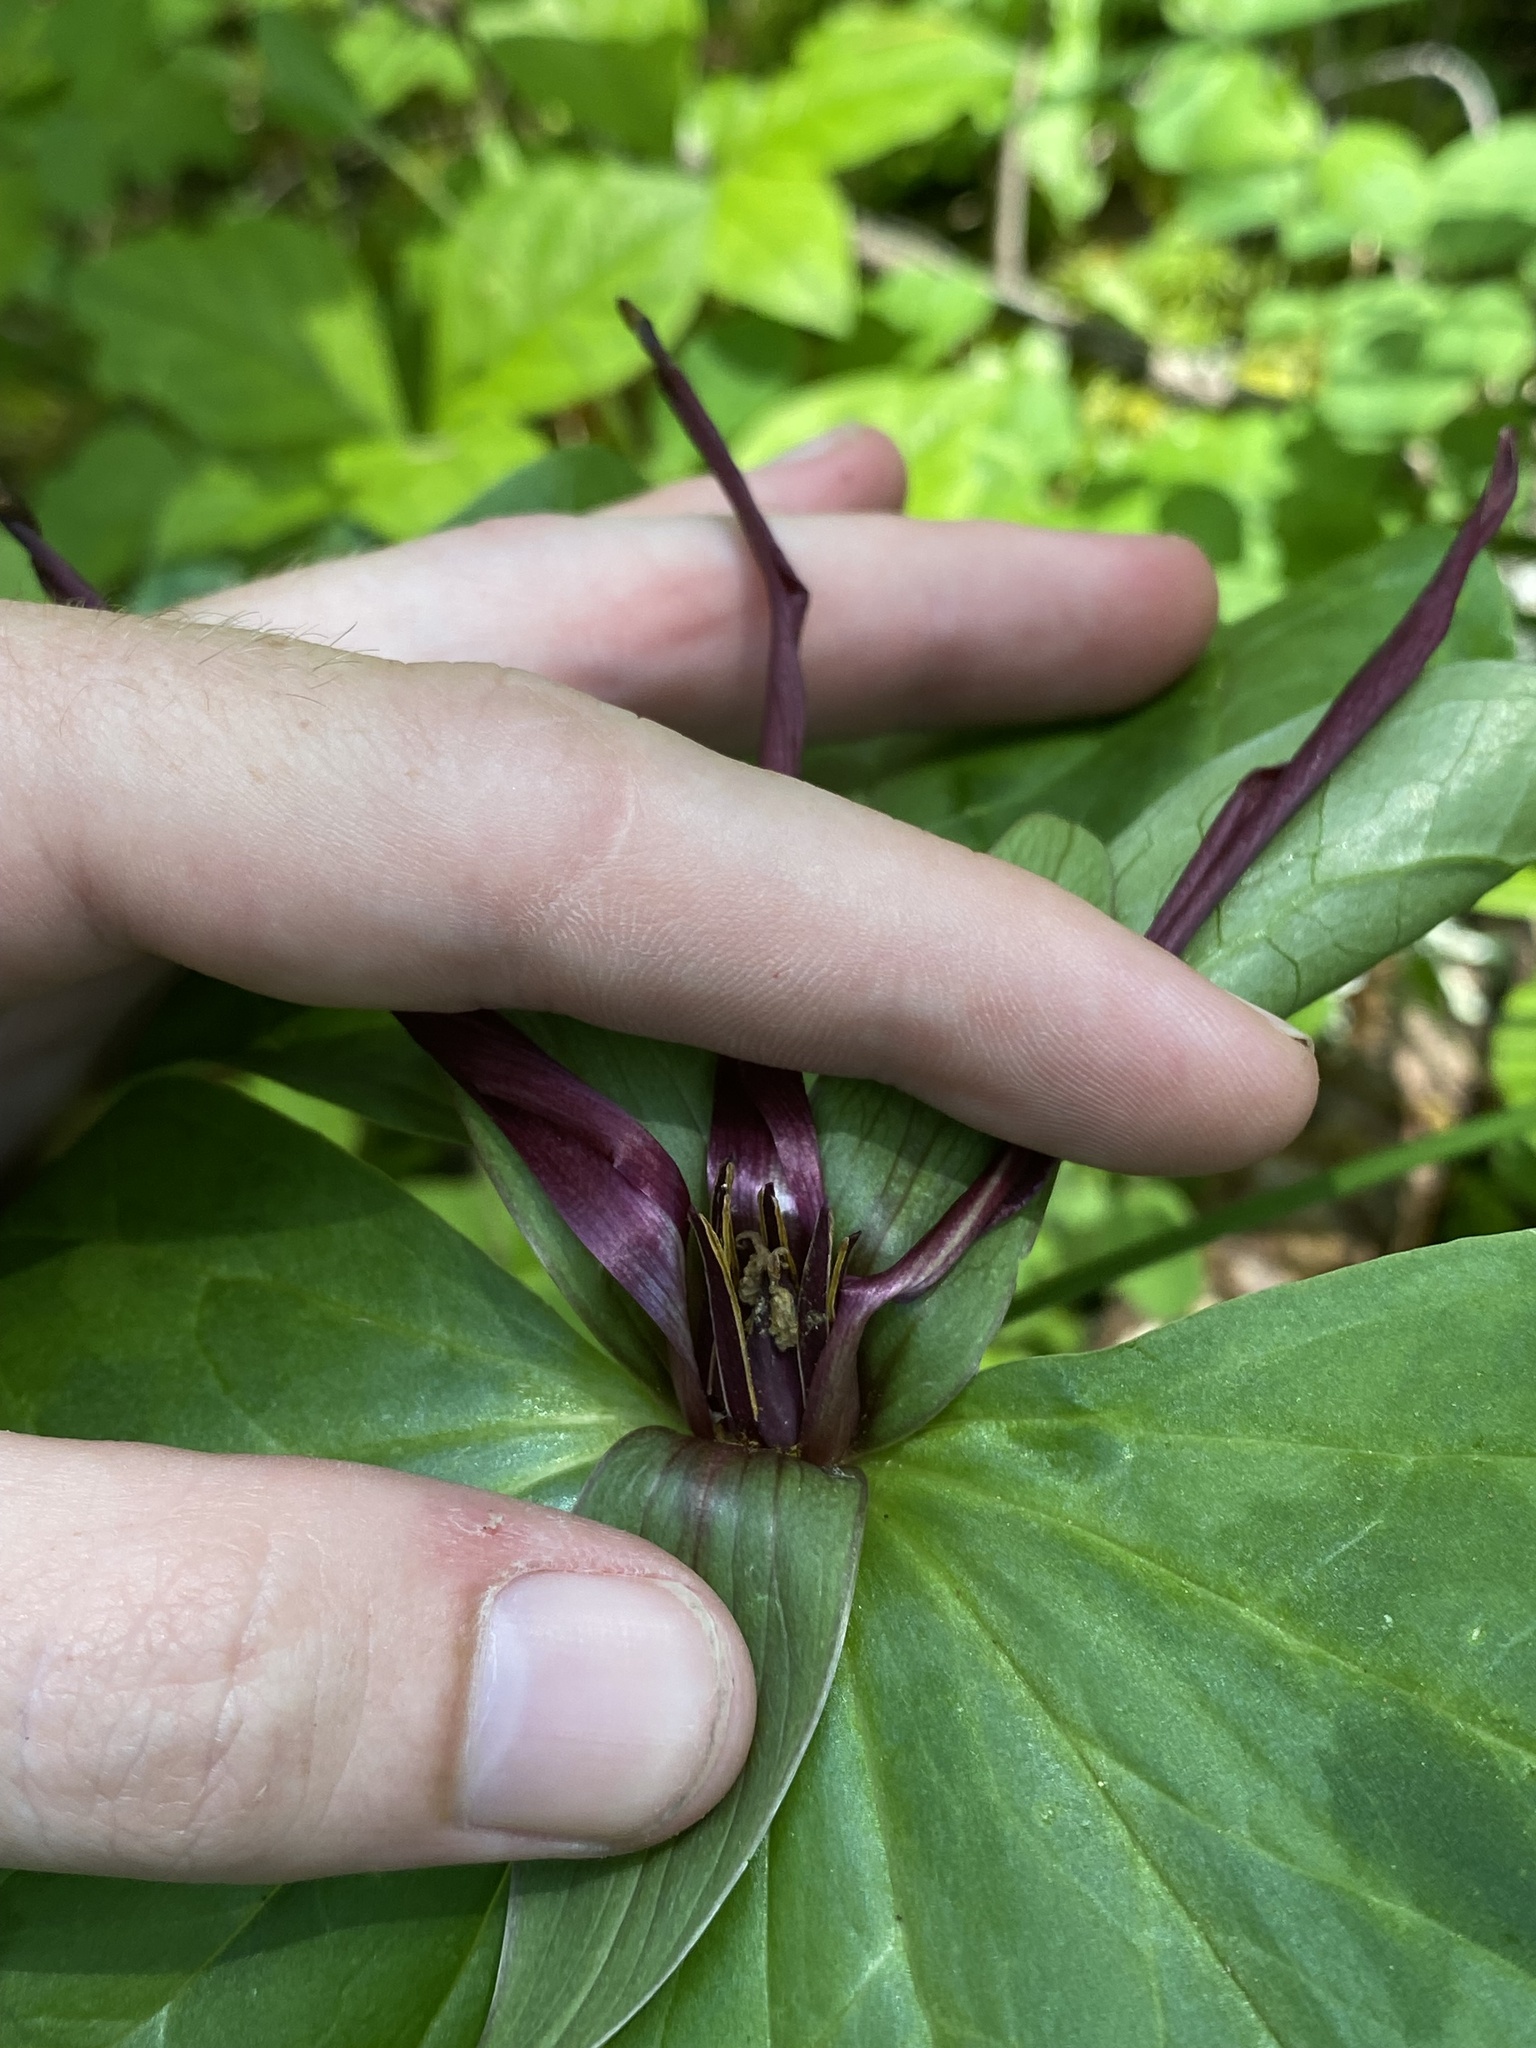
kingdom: Plantae
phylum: Tracheophyta
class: Liliopsida
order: Liliales
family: Melanthiaceae
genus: Trillium
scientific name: Trillium kurabayashii
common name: Giant purple trillium
